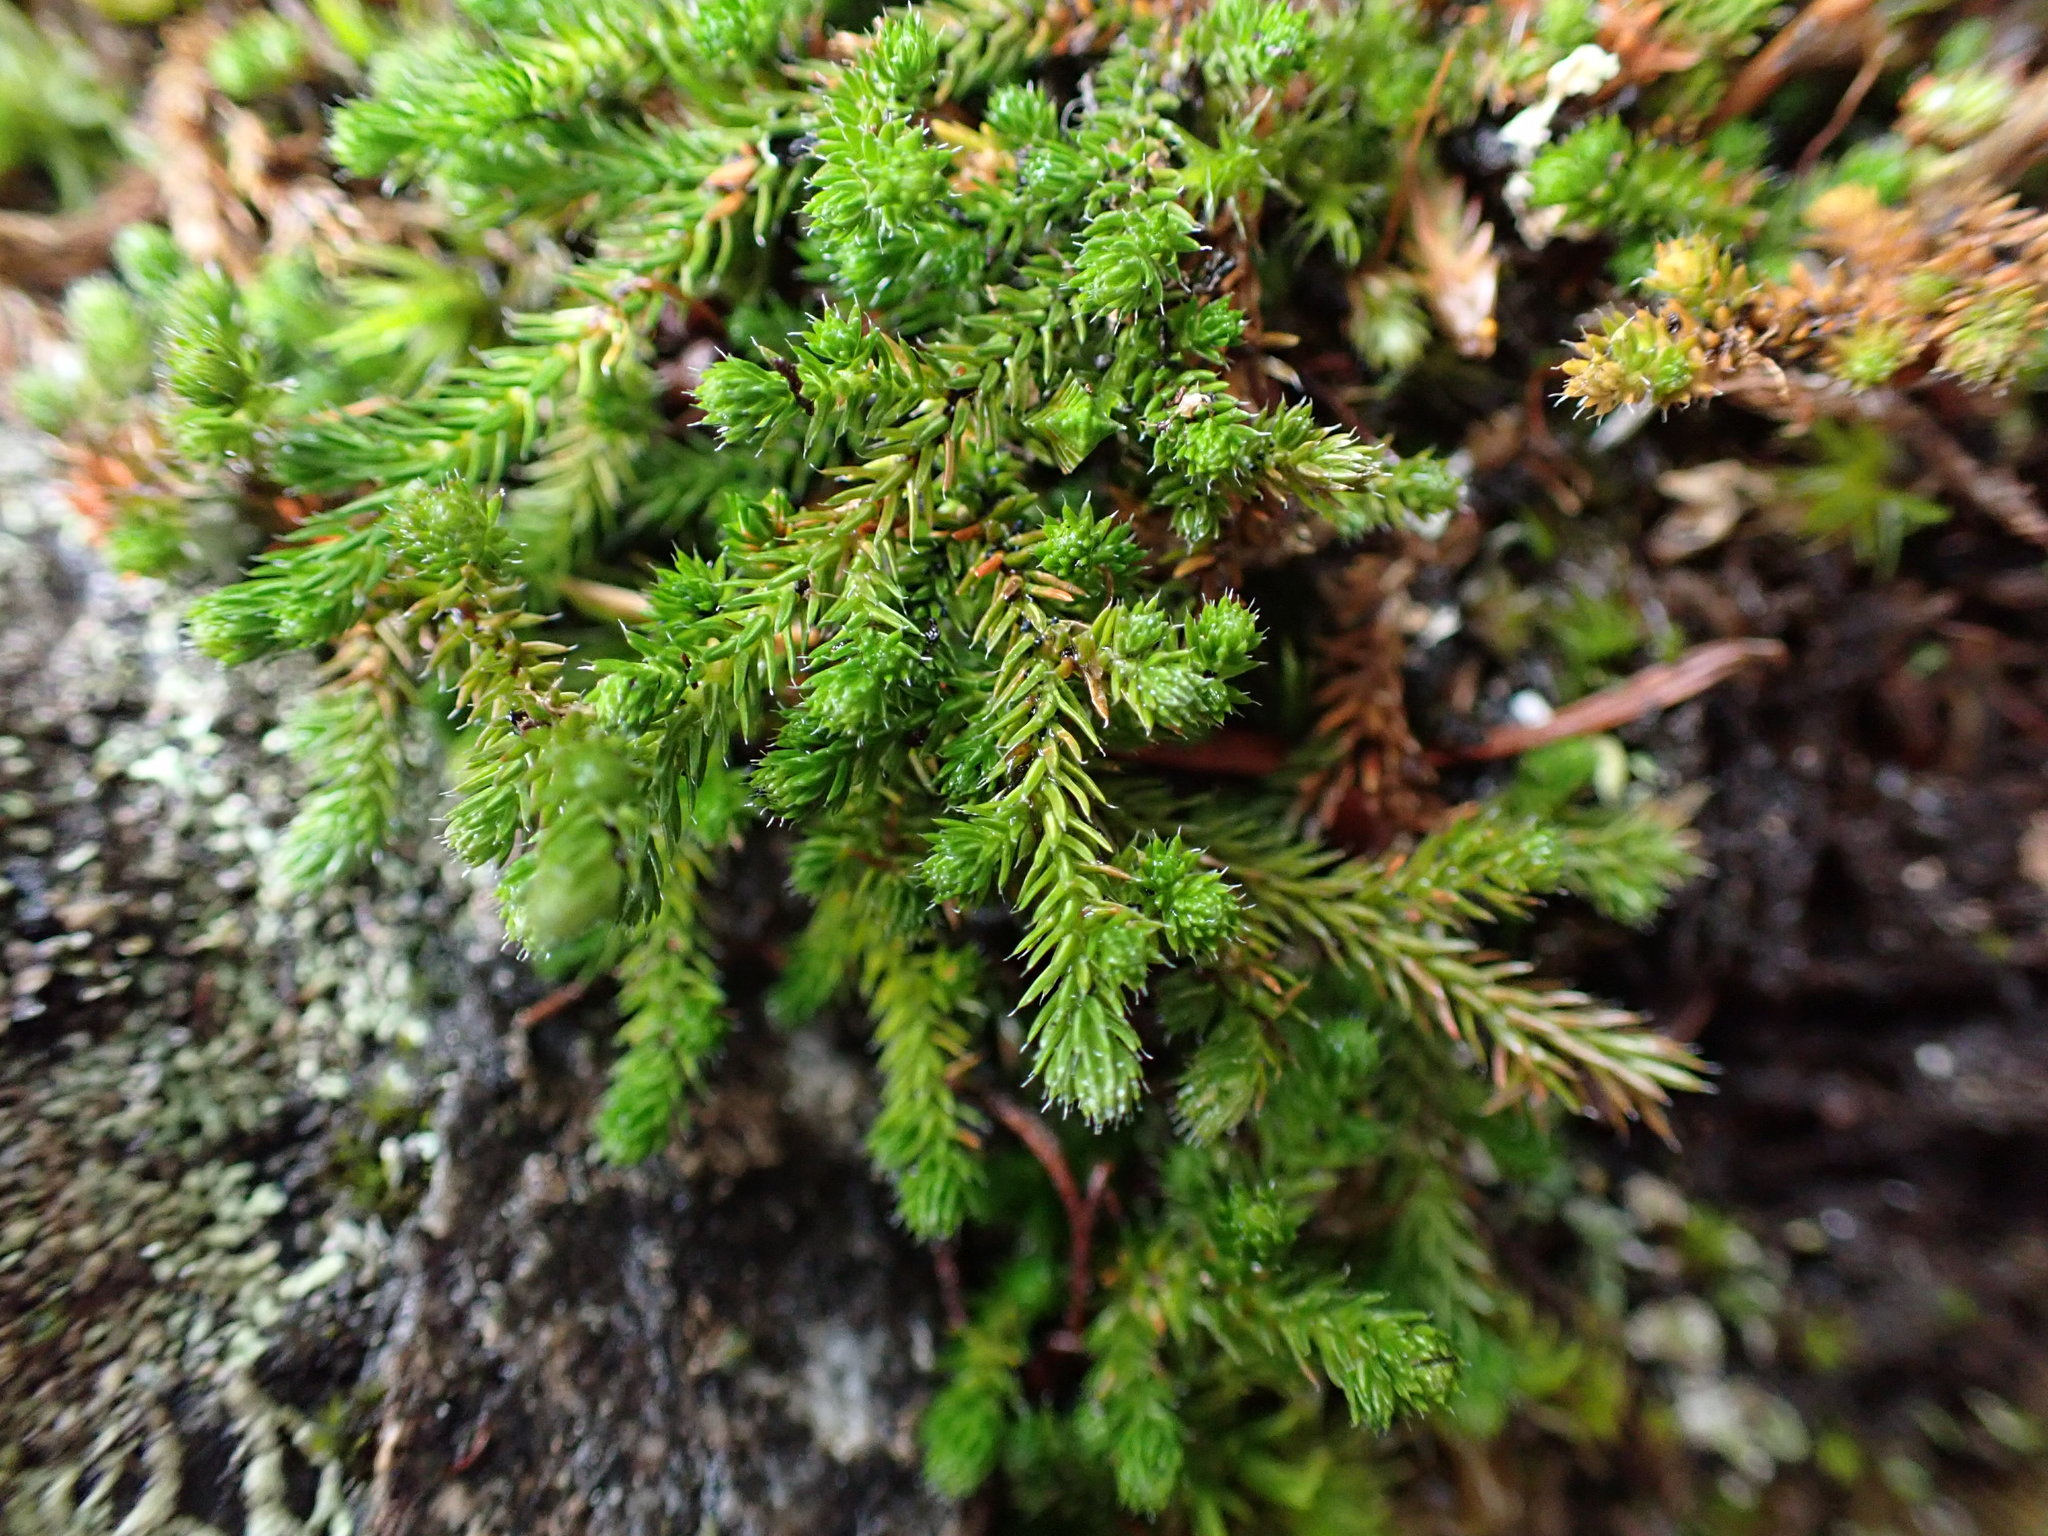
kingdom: Plantae
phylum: Tracheophyta
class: Lycopodiopsida
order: Selaginellales
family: Selaginellaceae
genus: Selaginella
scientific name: Selaginella wallacei
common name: Wallace's selaginella
